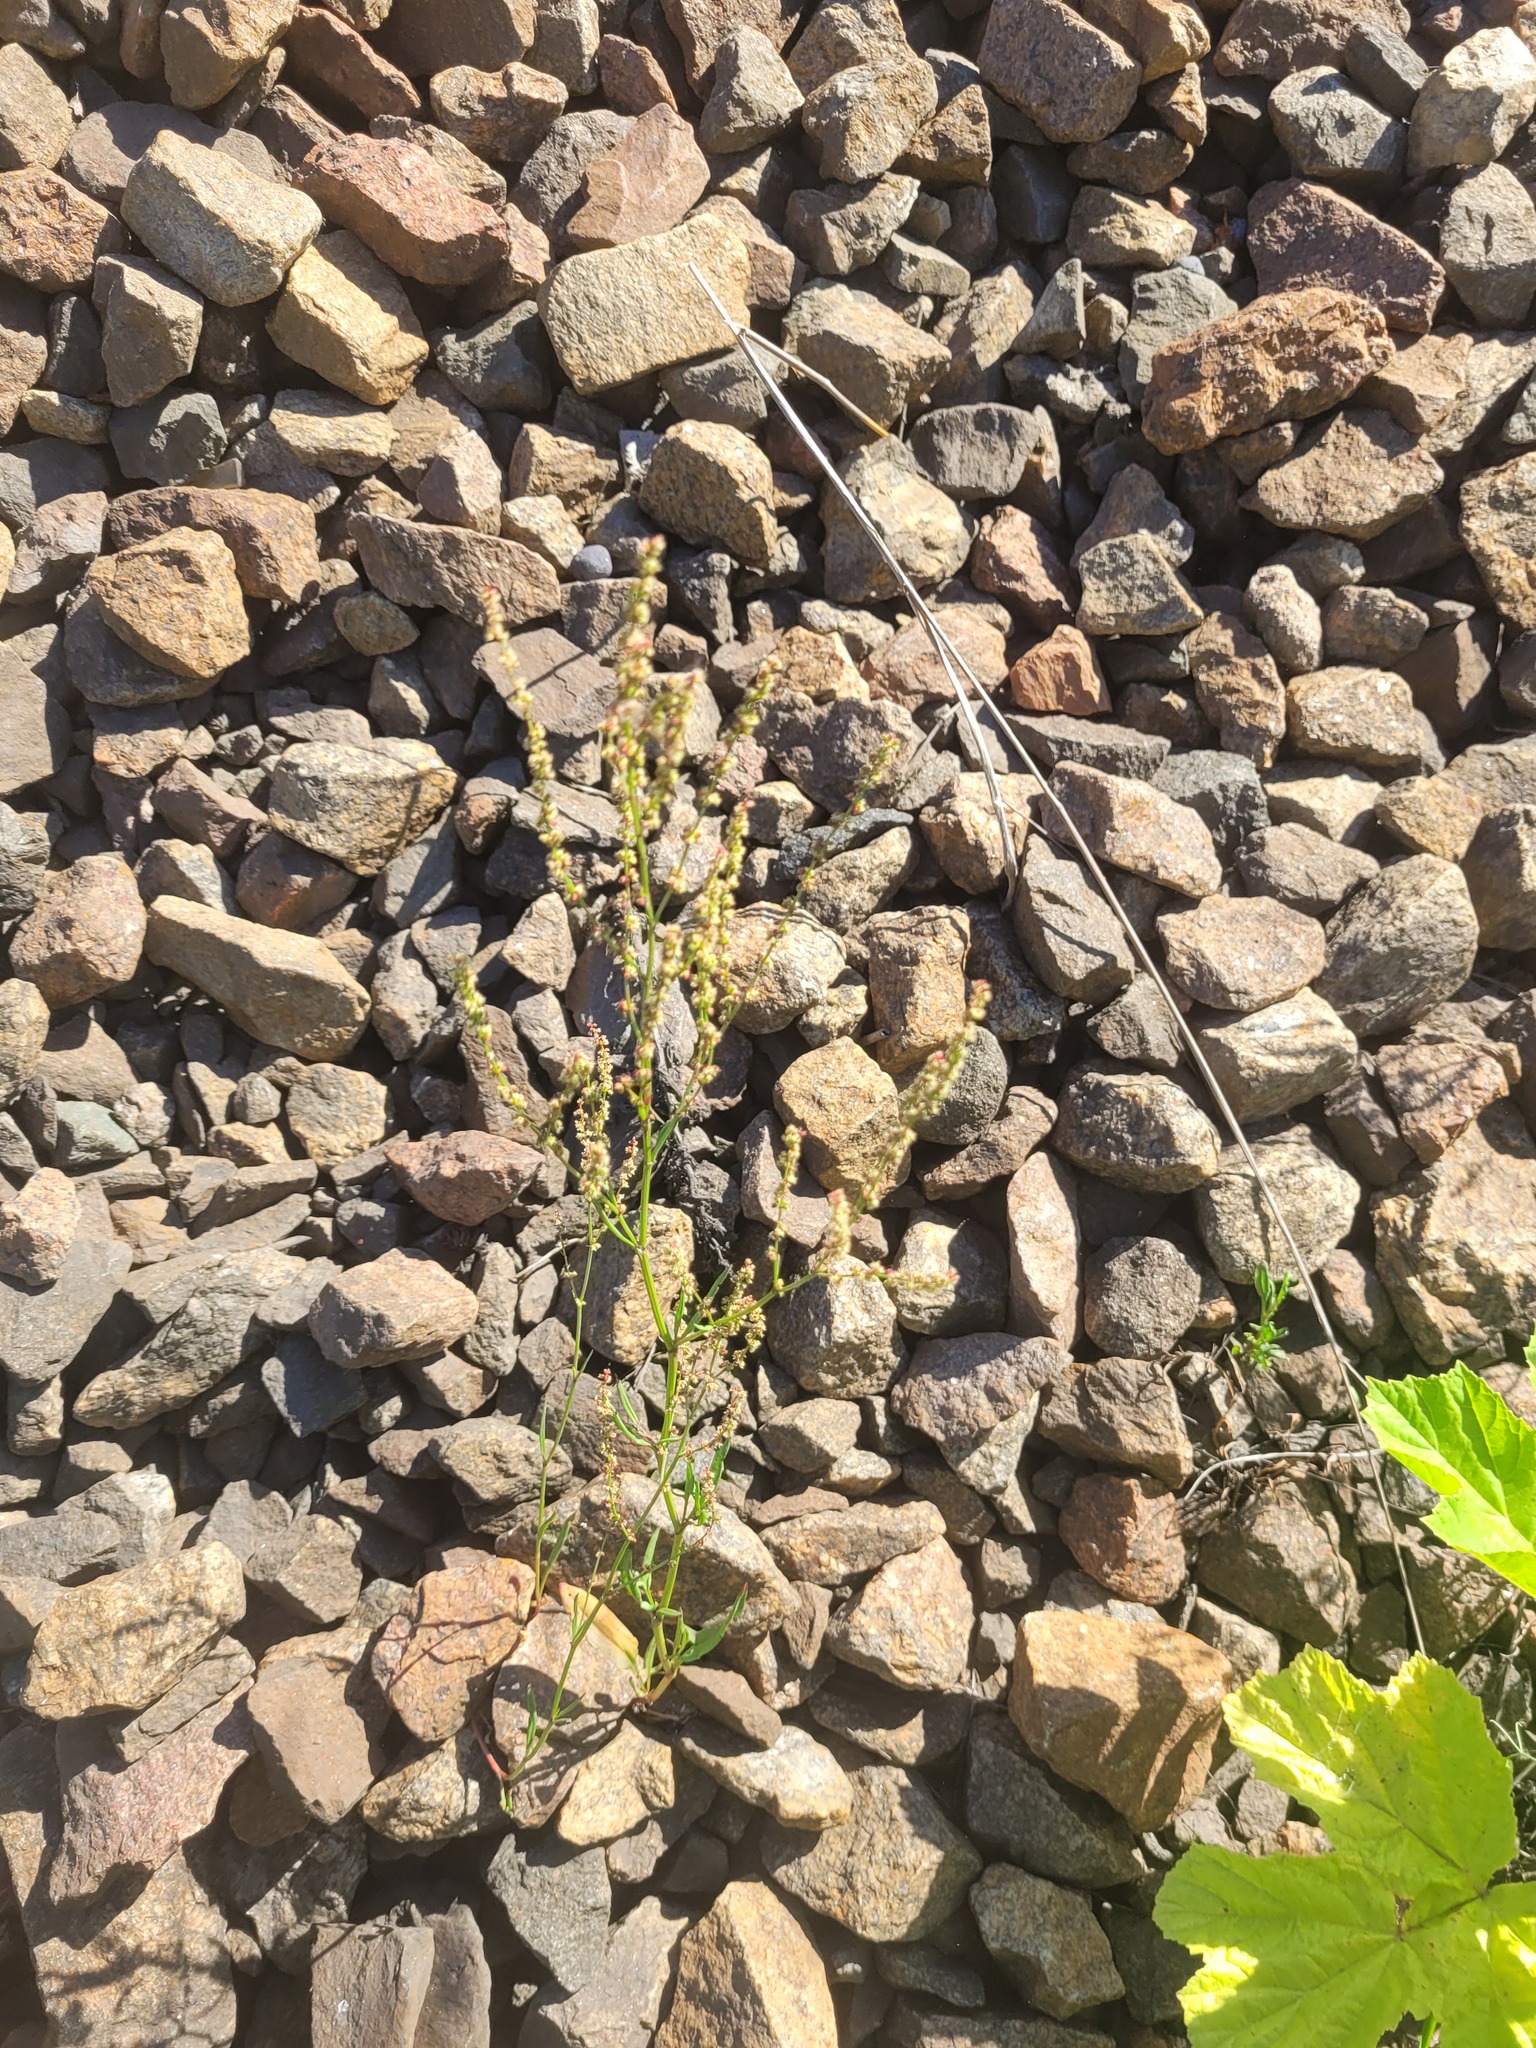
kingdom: Plantae
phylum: Tracheophyta
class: Magnoliopsida
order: Caryophyllales
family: Polygonaceae
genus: Rumex
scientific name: Rumex acetosella
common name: Common sheep sorrel
